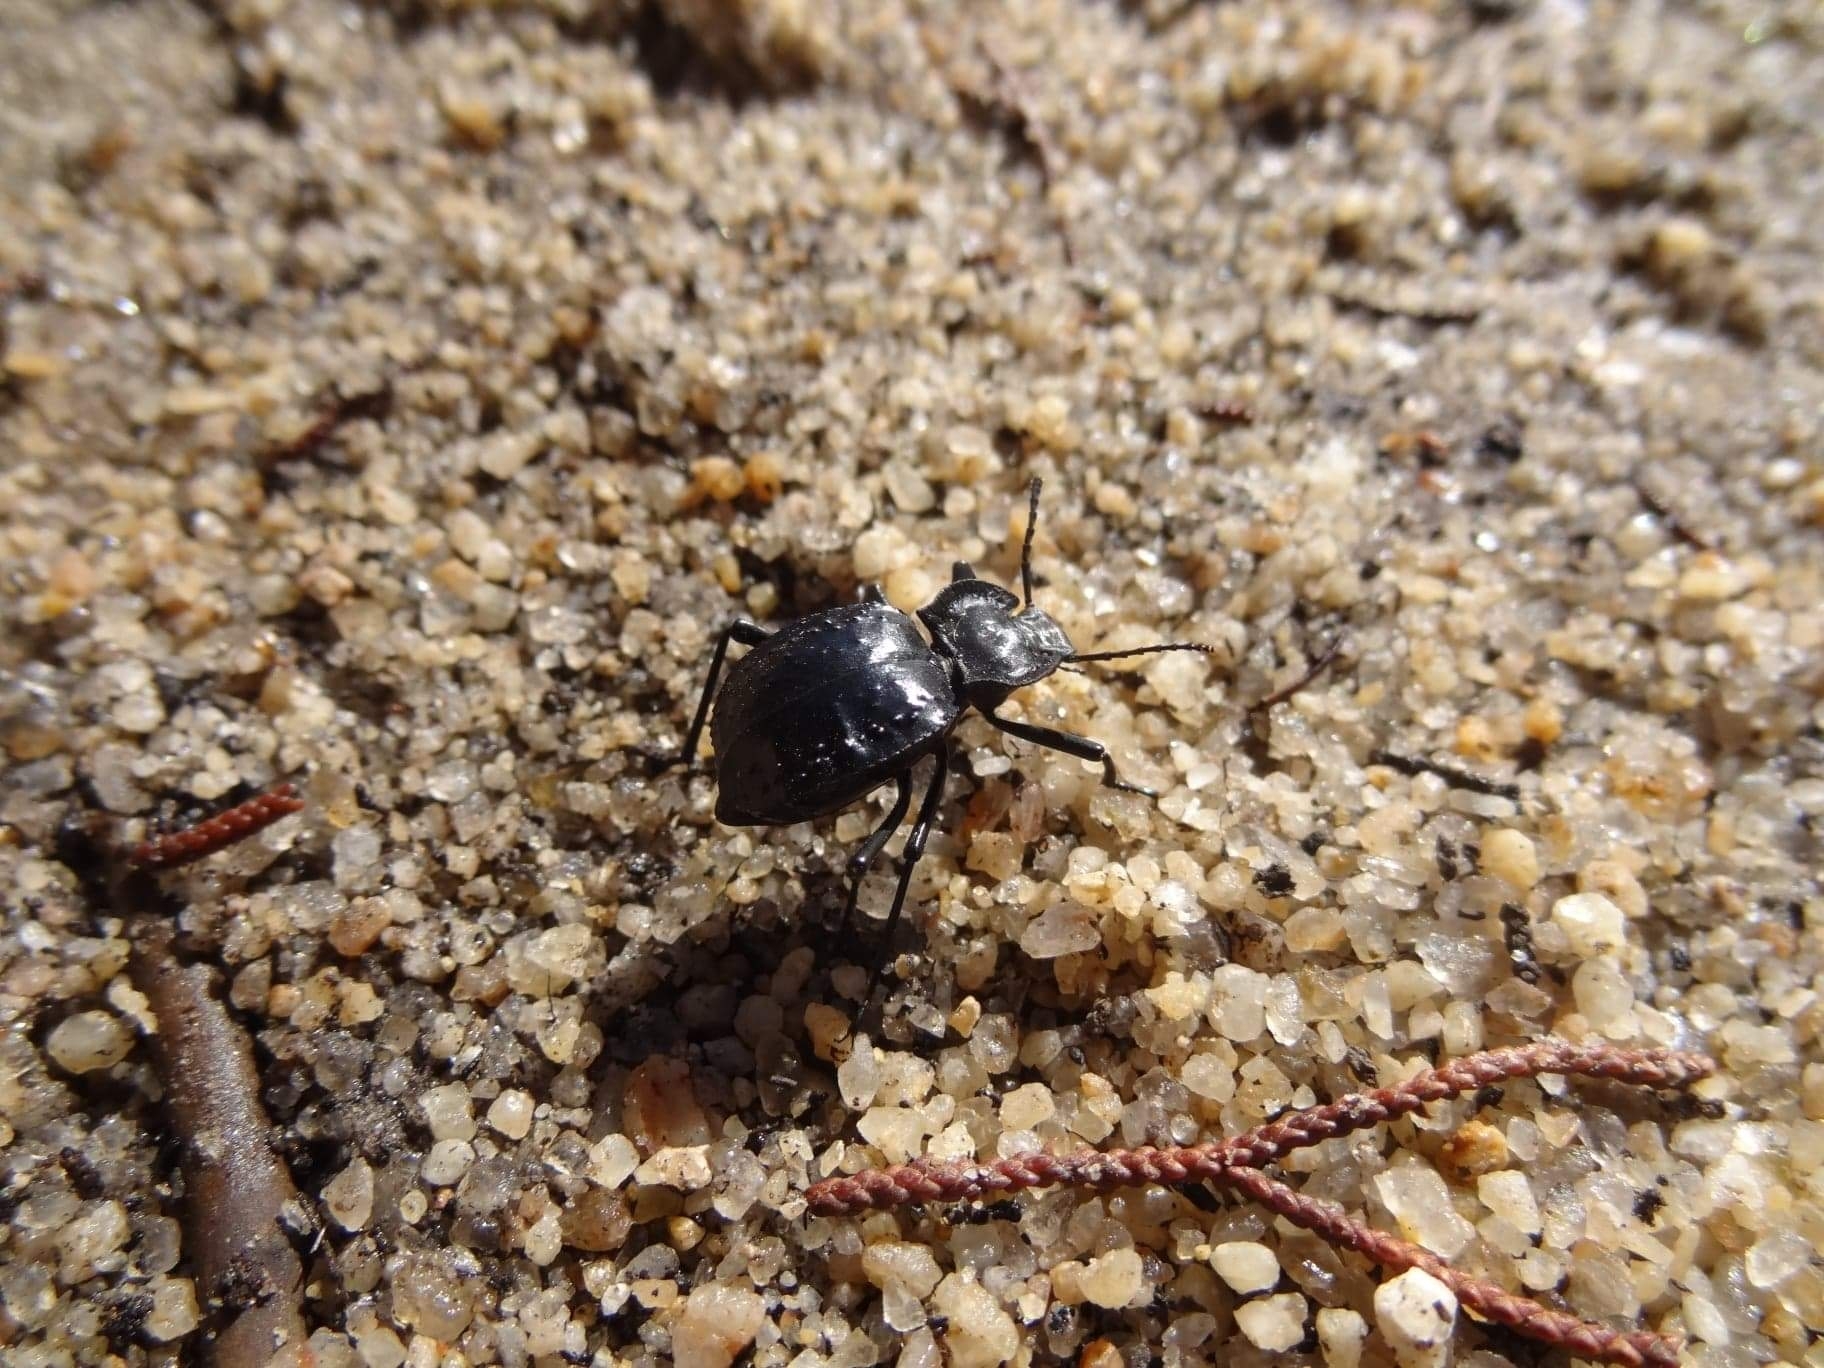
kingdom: Animalia
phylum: Arthropoda
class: Insecta
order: Coleoptera
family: Tenebrionidae
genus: Akis
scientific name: Akis bacarozzo
